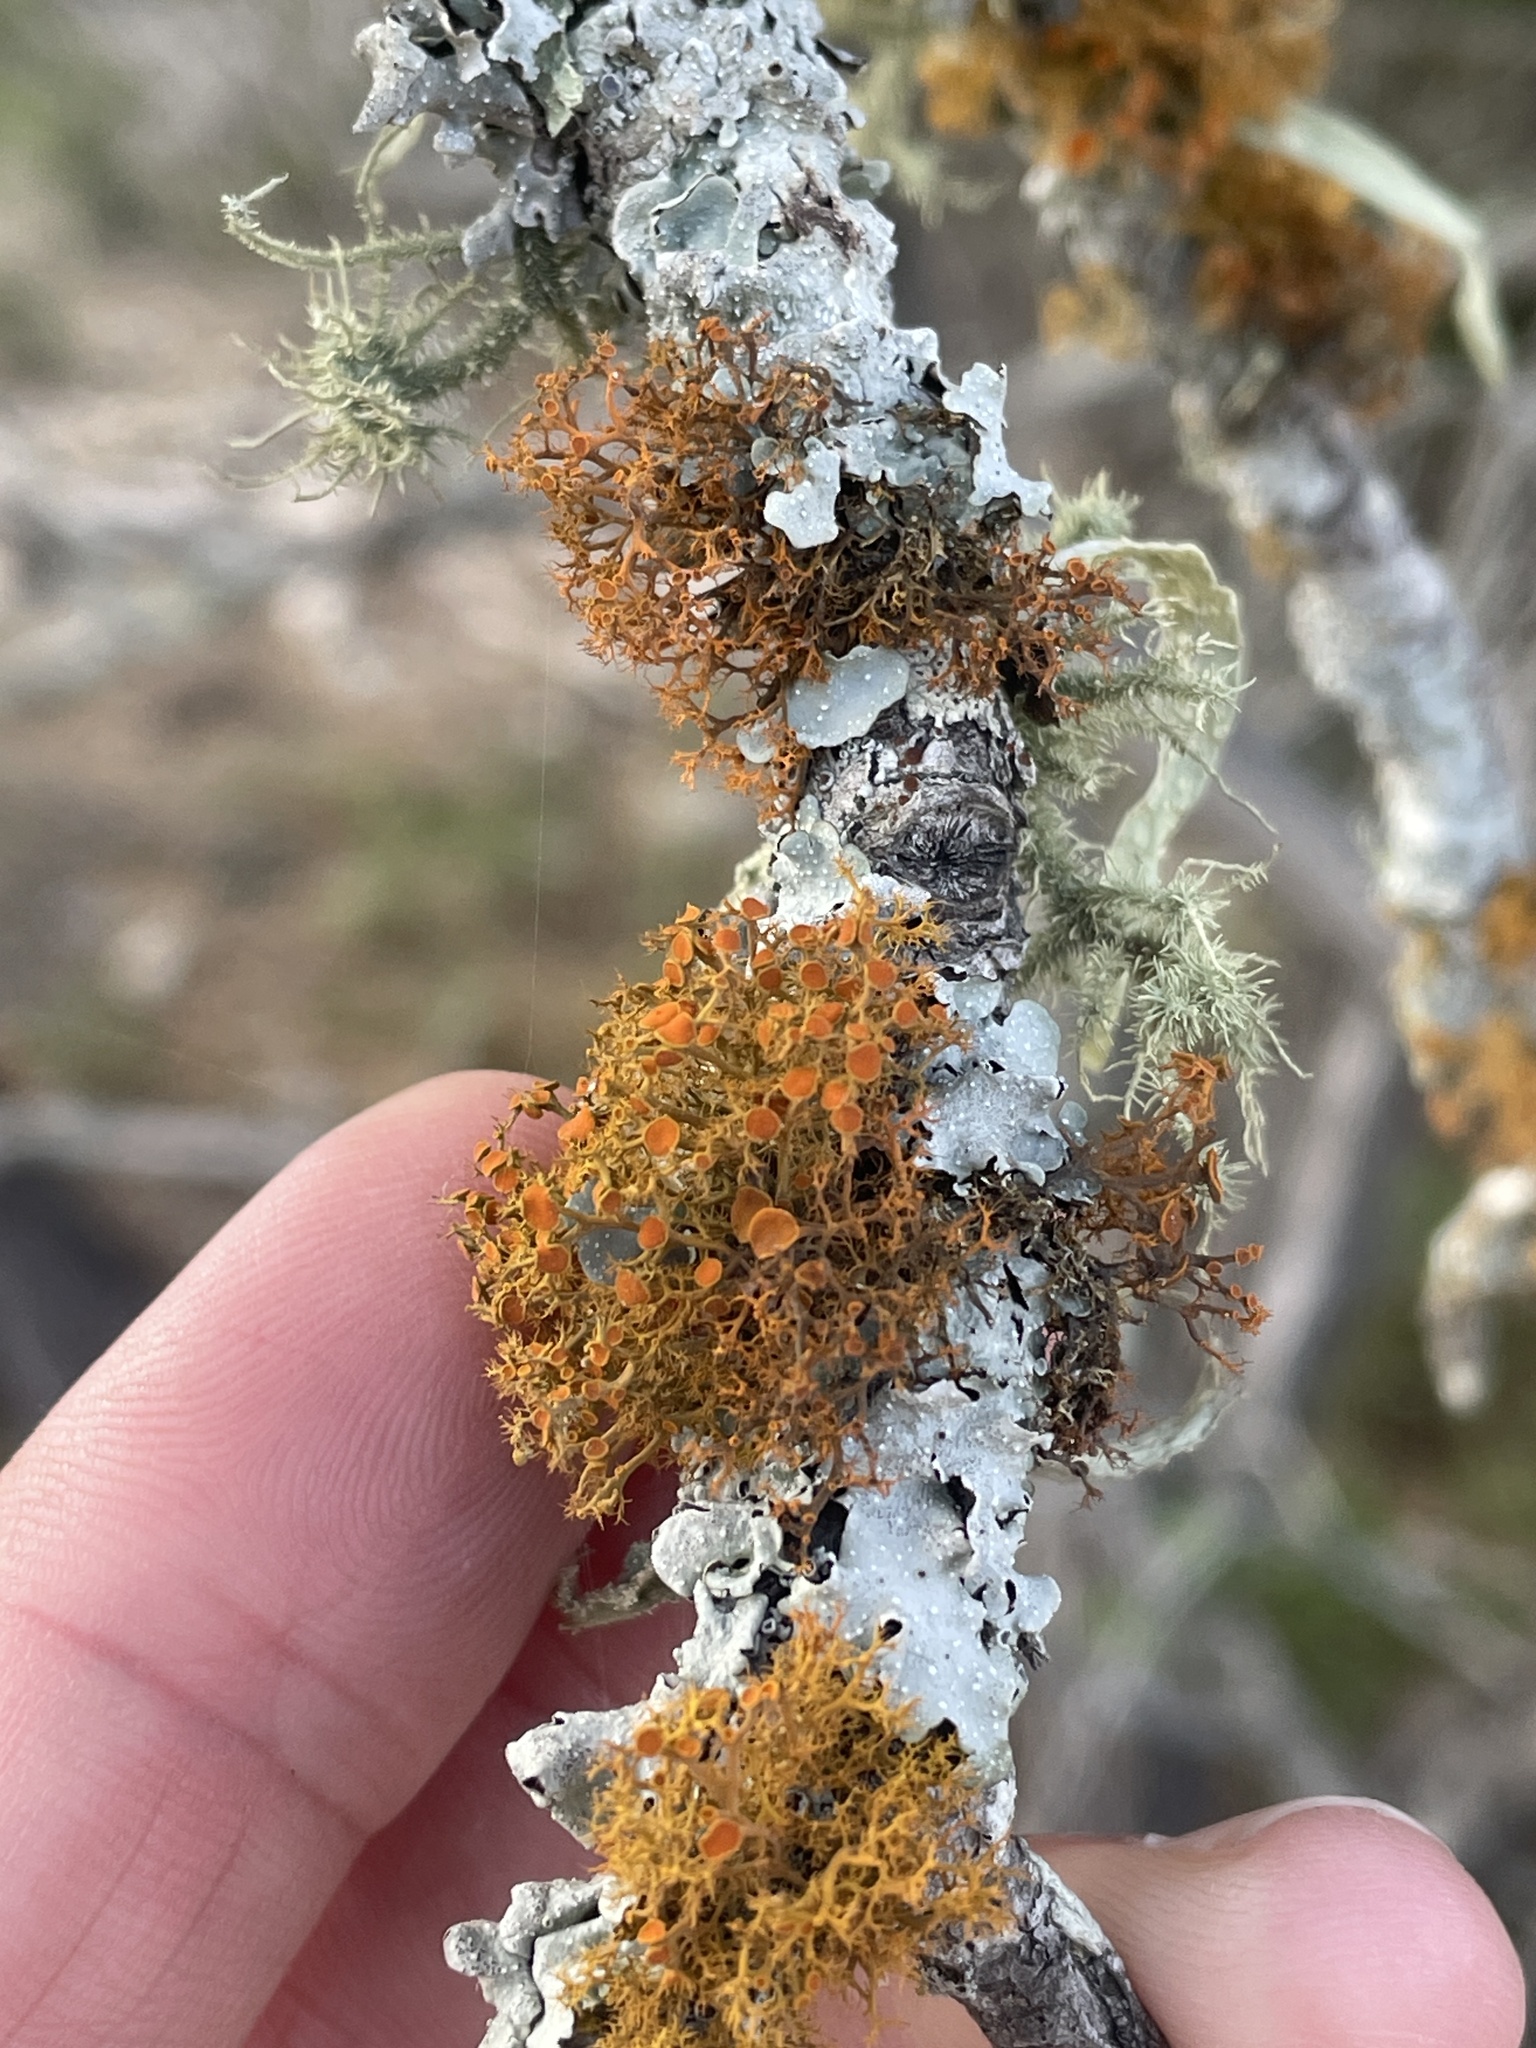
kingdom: Fungi
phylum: Ascomycota
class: Lecanoromycetes
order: Teloschistales
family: Teloschistaceae
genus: Teloschistes
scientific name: Teloschistes exilis
